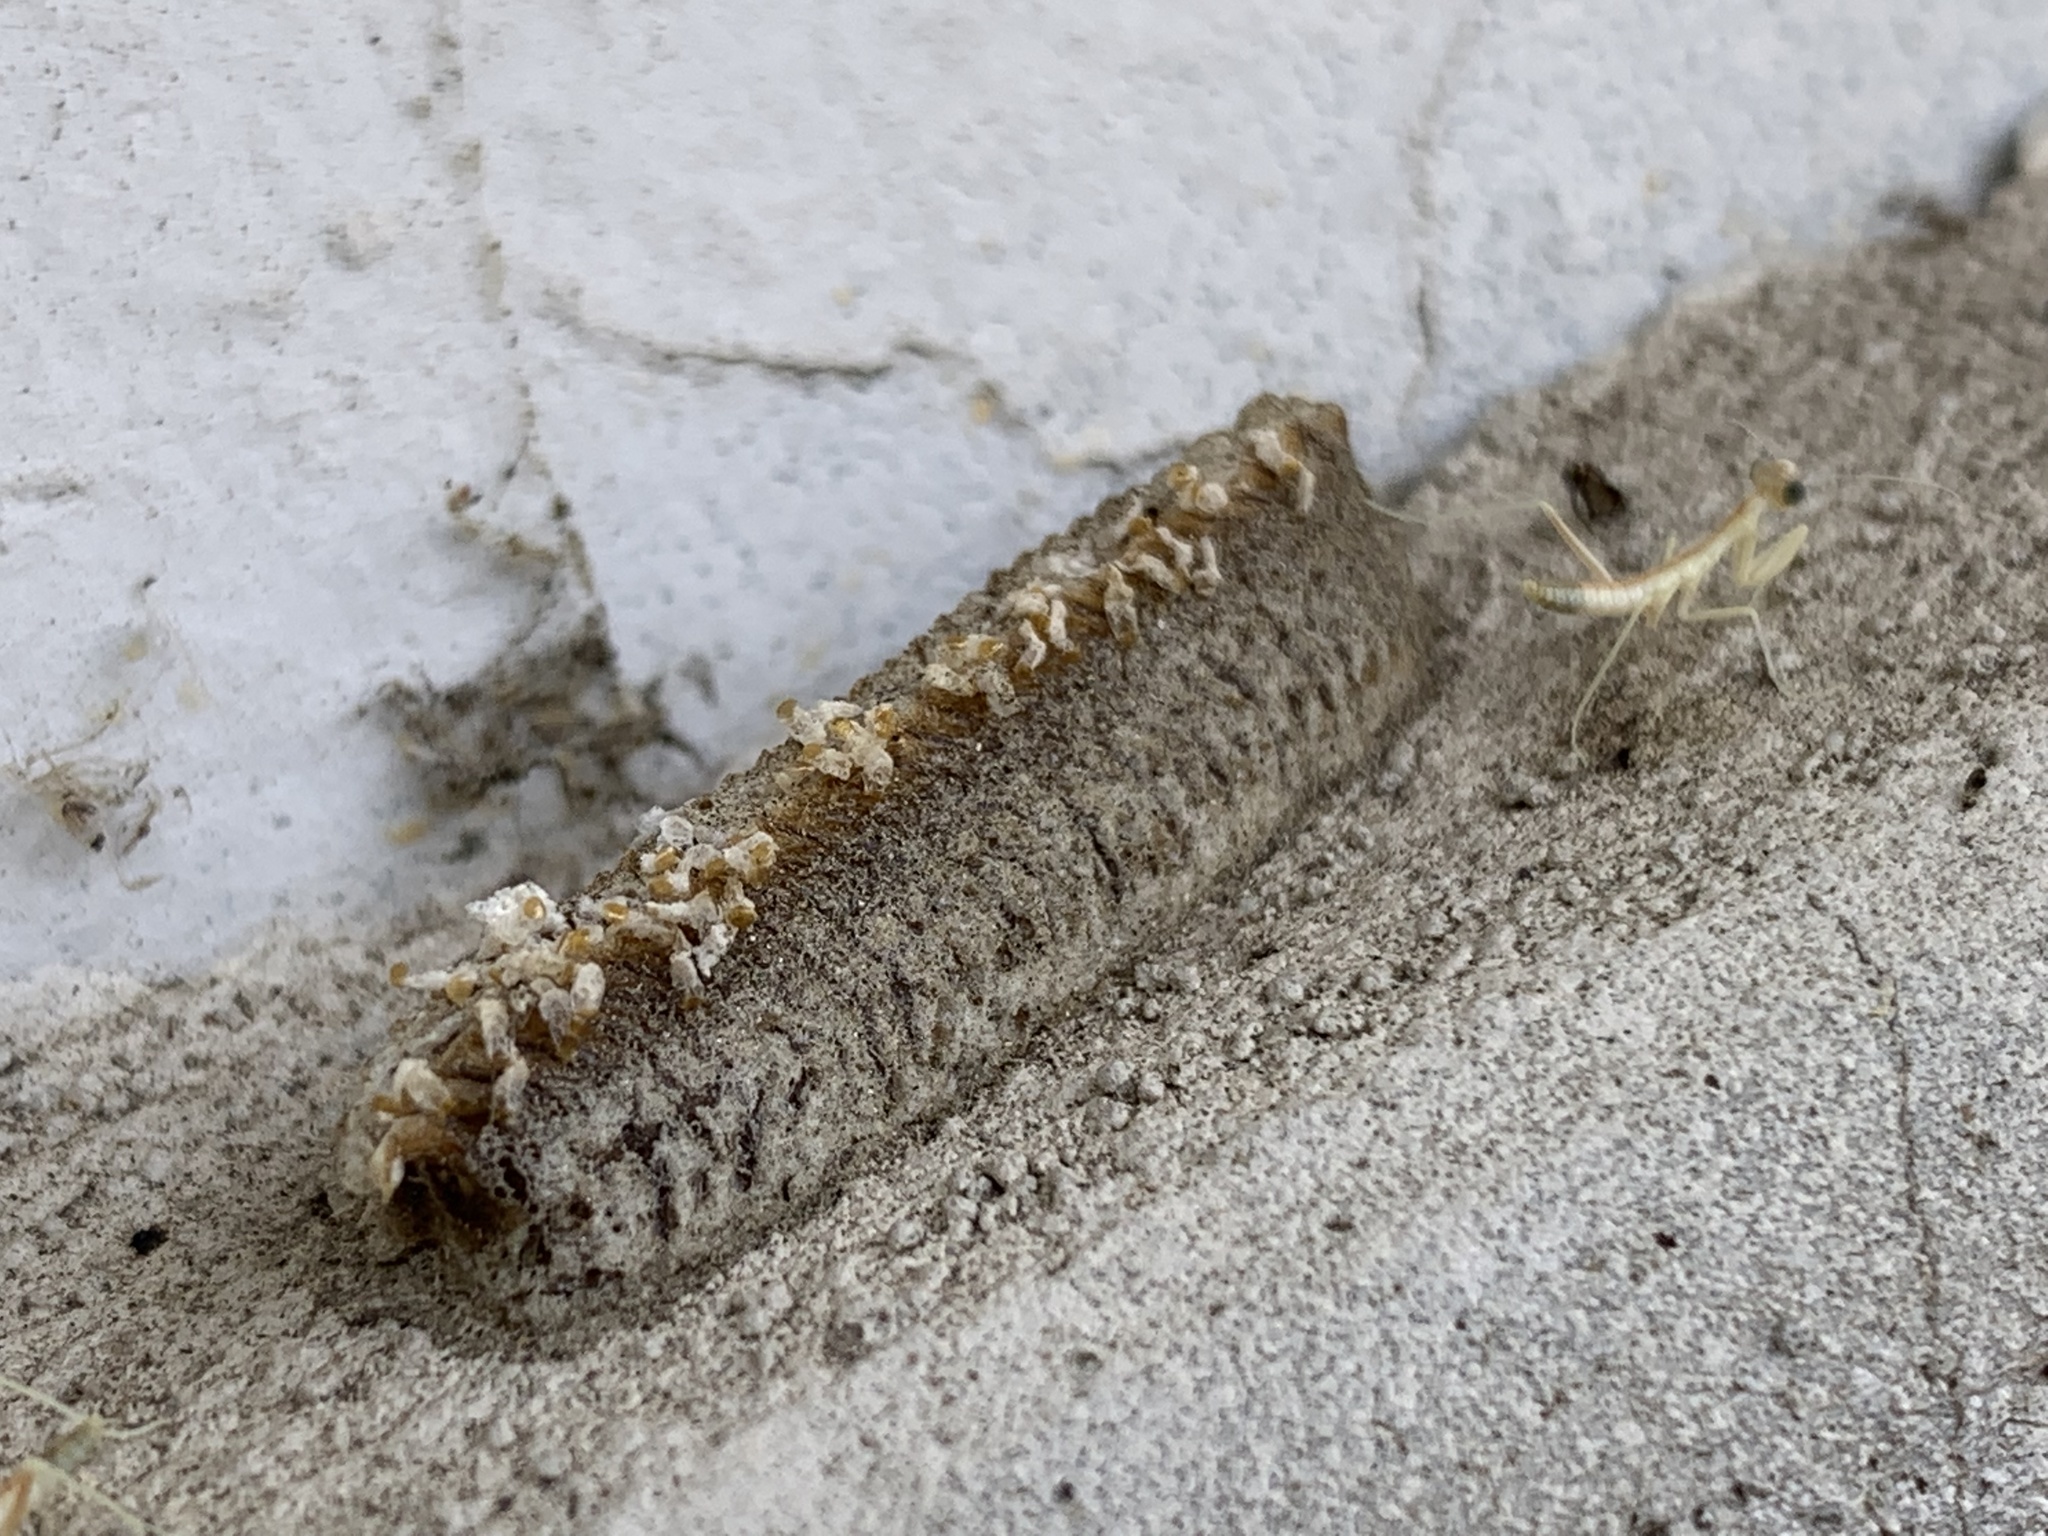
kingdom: Animalia
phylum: Arthropoda
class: Insecta
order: Mantodea
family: Eremiaphilidae
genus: Iris
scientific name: Iris oratoria
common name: Mediterranean mantis
